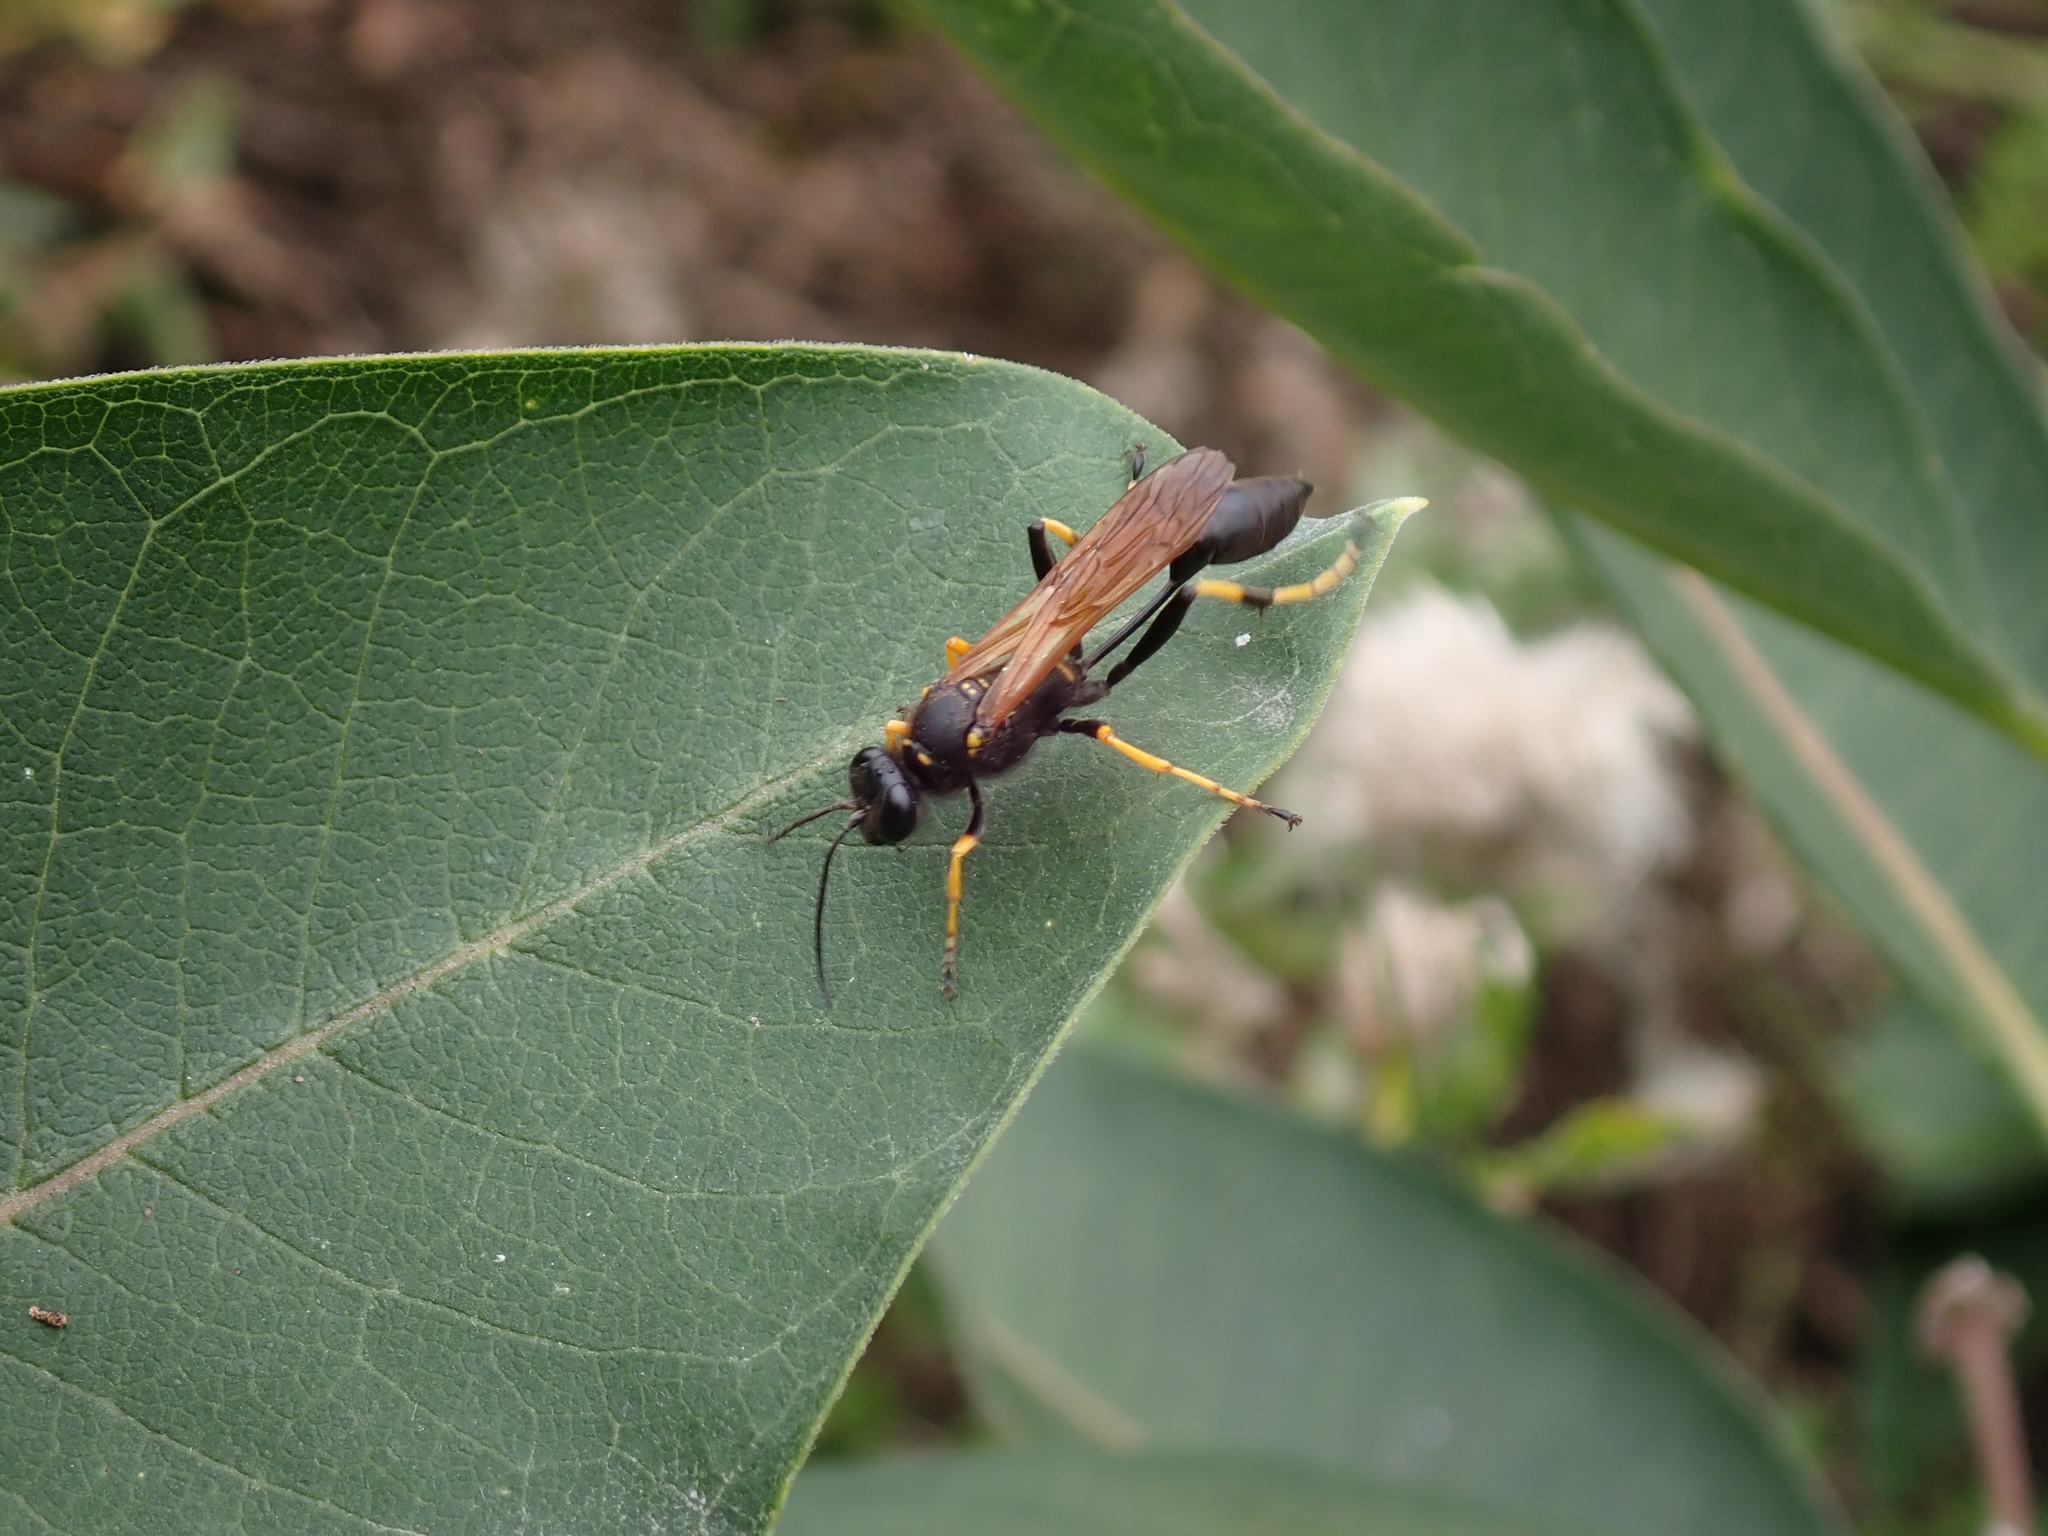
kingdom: Animalia
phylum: Arthropoda
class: Insecta
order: Hymenoptera
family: Sphecidae
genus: Sceliphron
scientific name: Sceliphron caementarium
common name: Mud dauber
